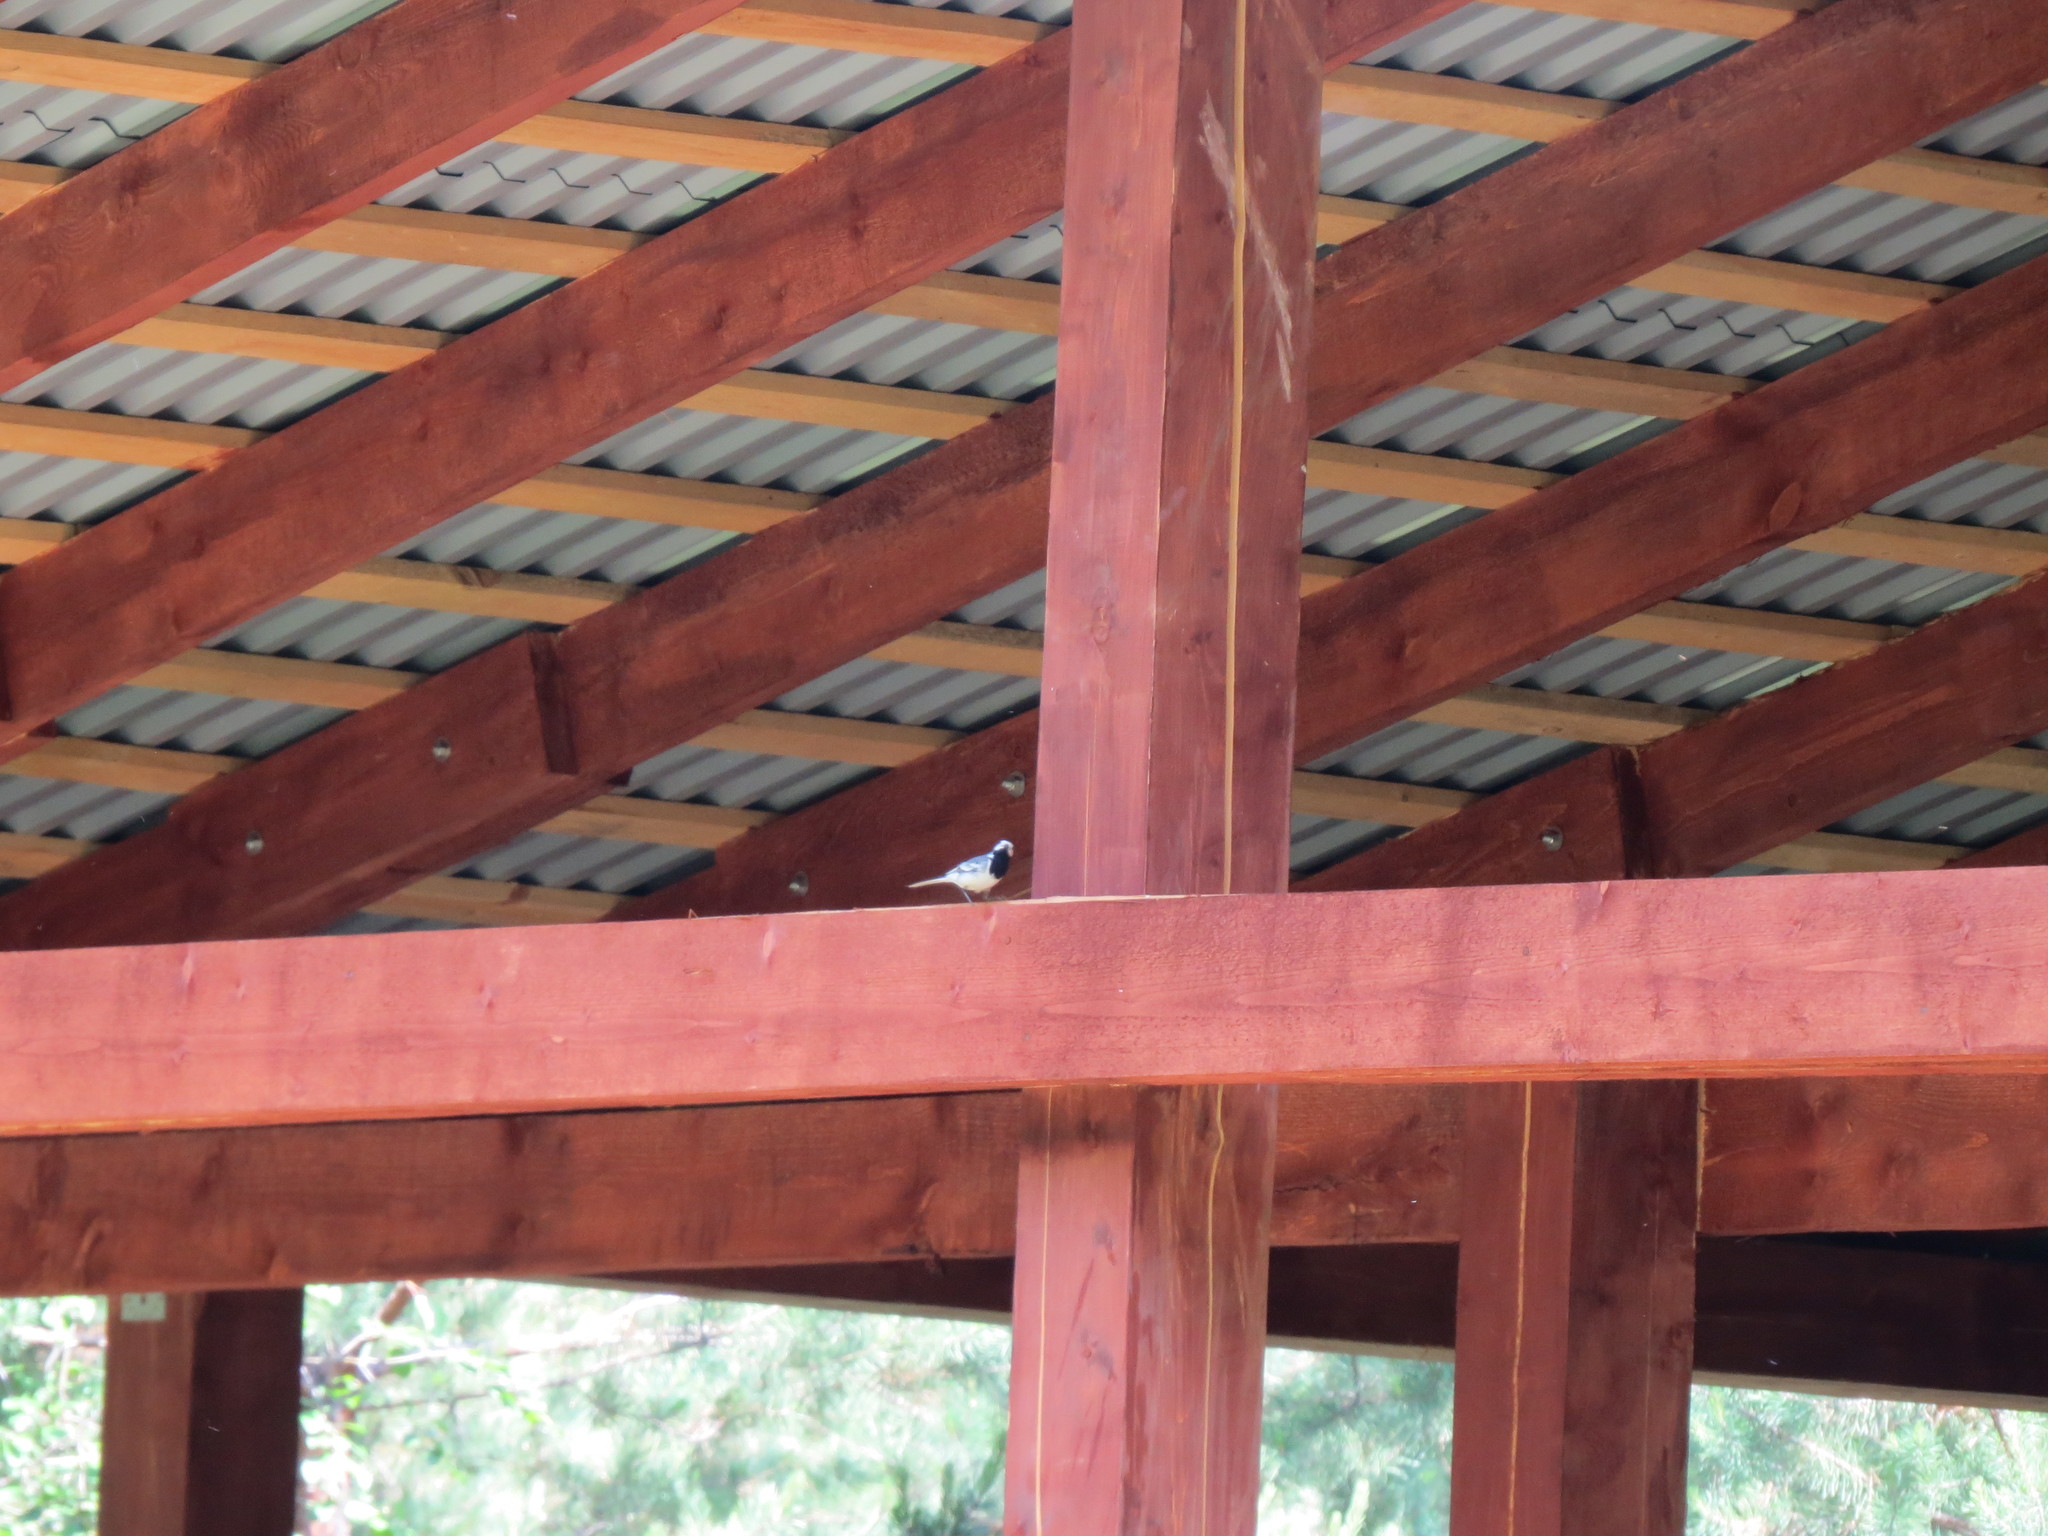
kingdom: Animalia
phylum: Chordata
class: Aves
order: Passeriformes
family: Motacillidae
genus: Motacilla
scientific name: Motacilla alba
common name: White wagtail
